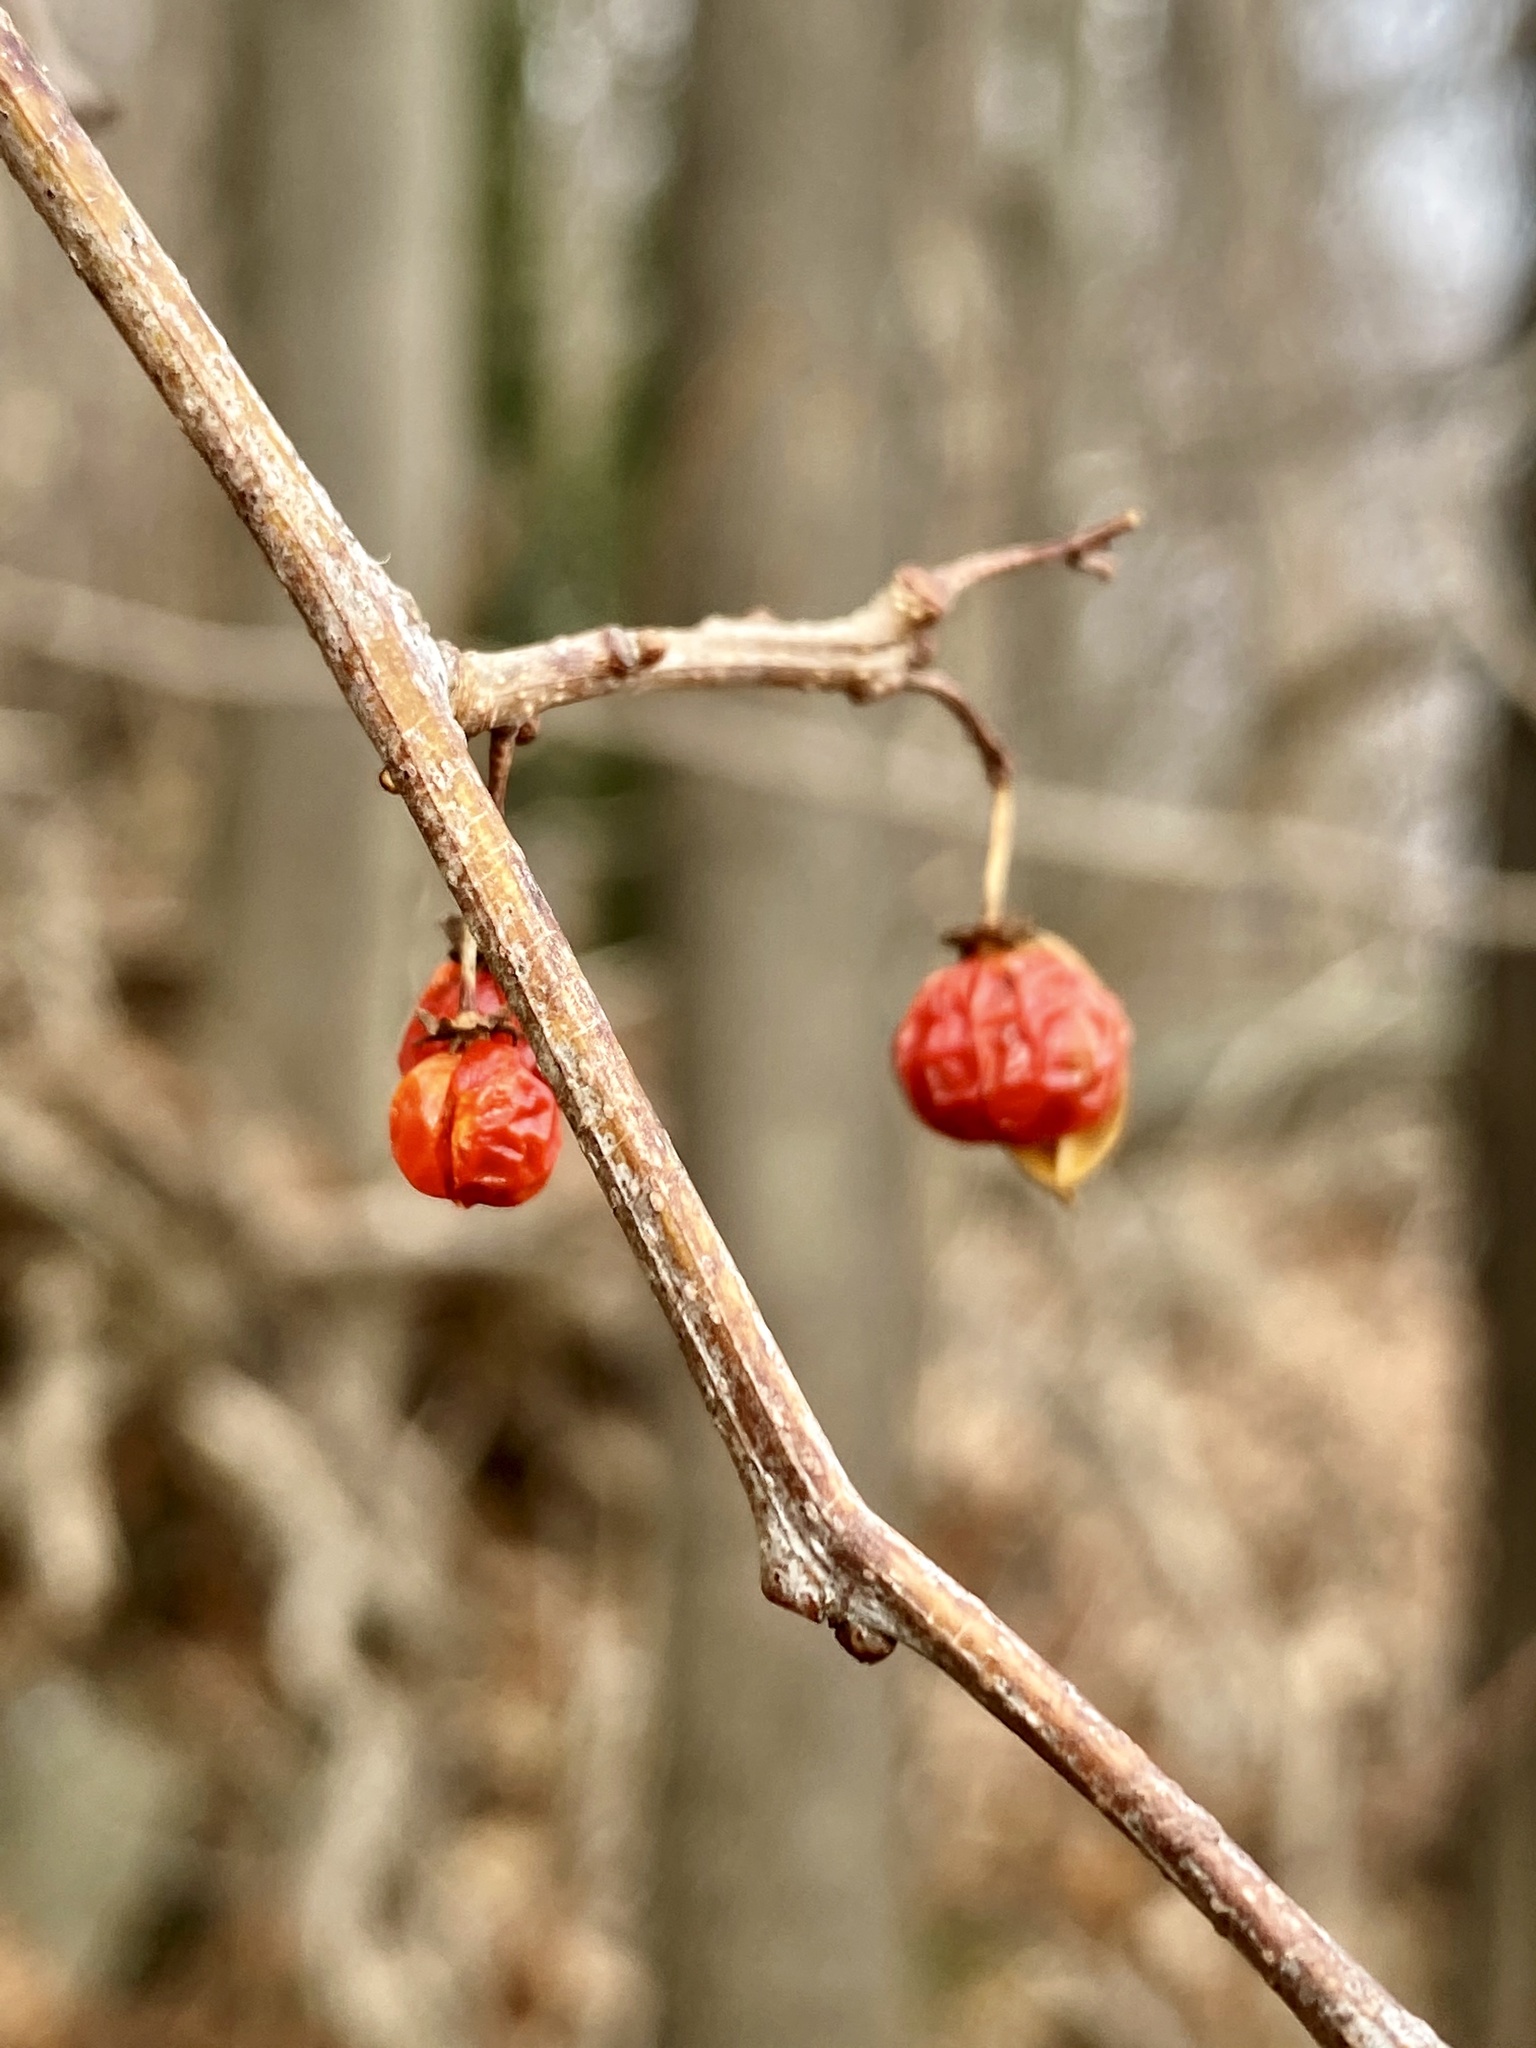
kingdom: Plantae
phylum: Tracheophyta
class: Magnoliopsida
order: Celastrales
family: Celastraceae
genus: Celastrus
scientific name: Celastrus orbiculatus
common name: Oriental bittersweet
